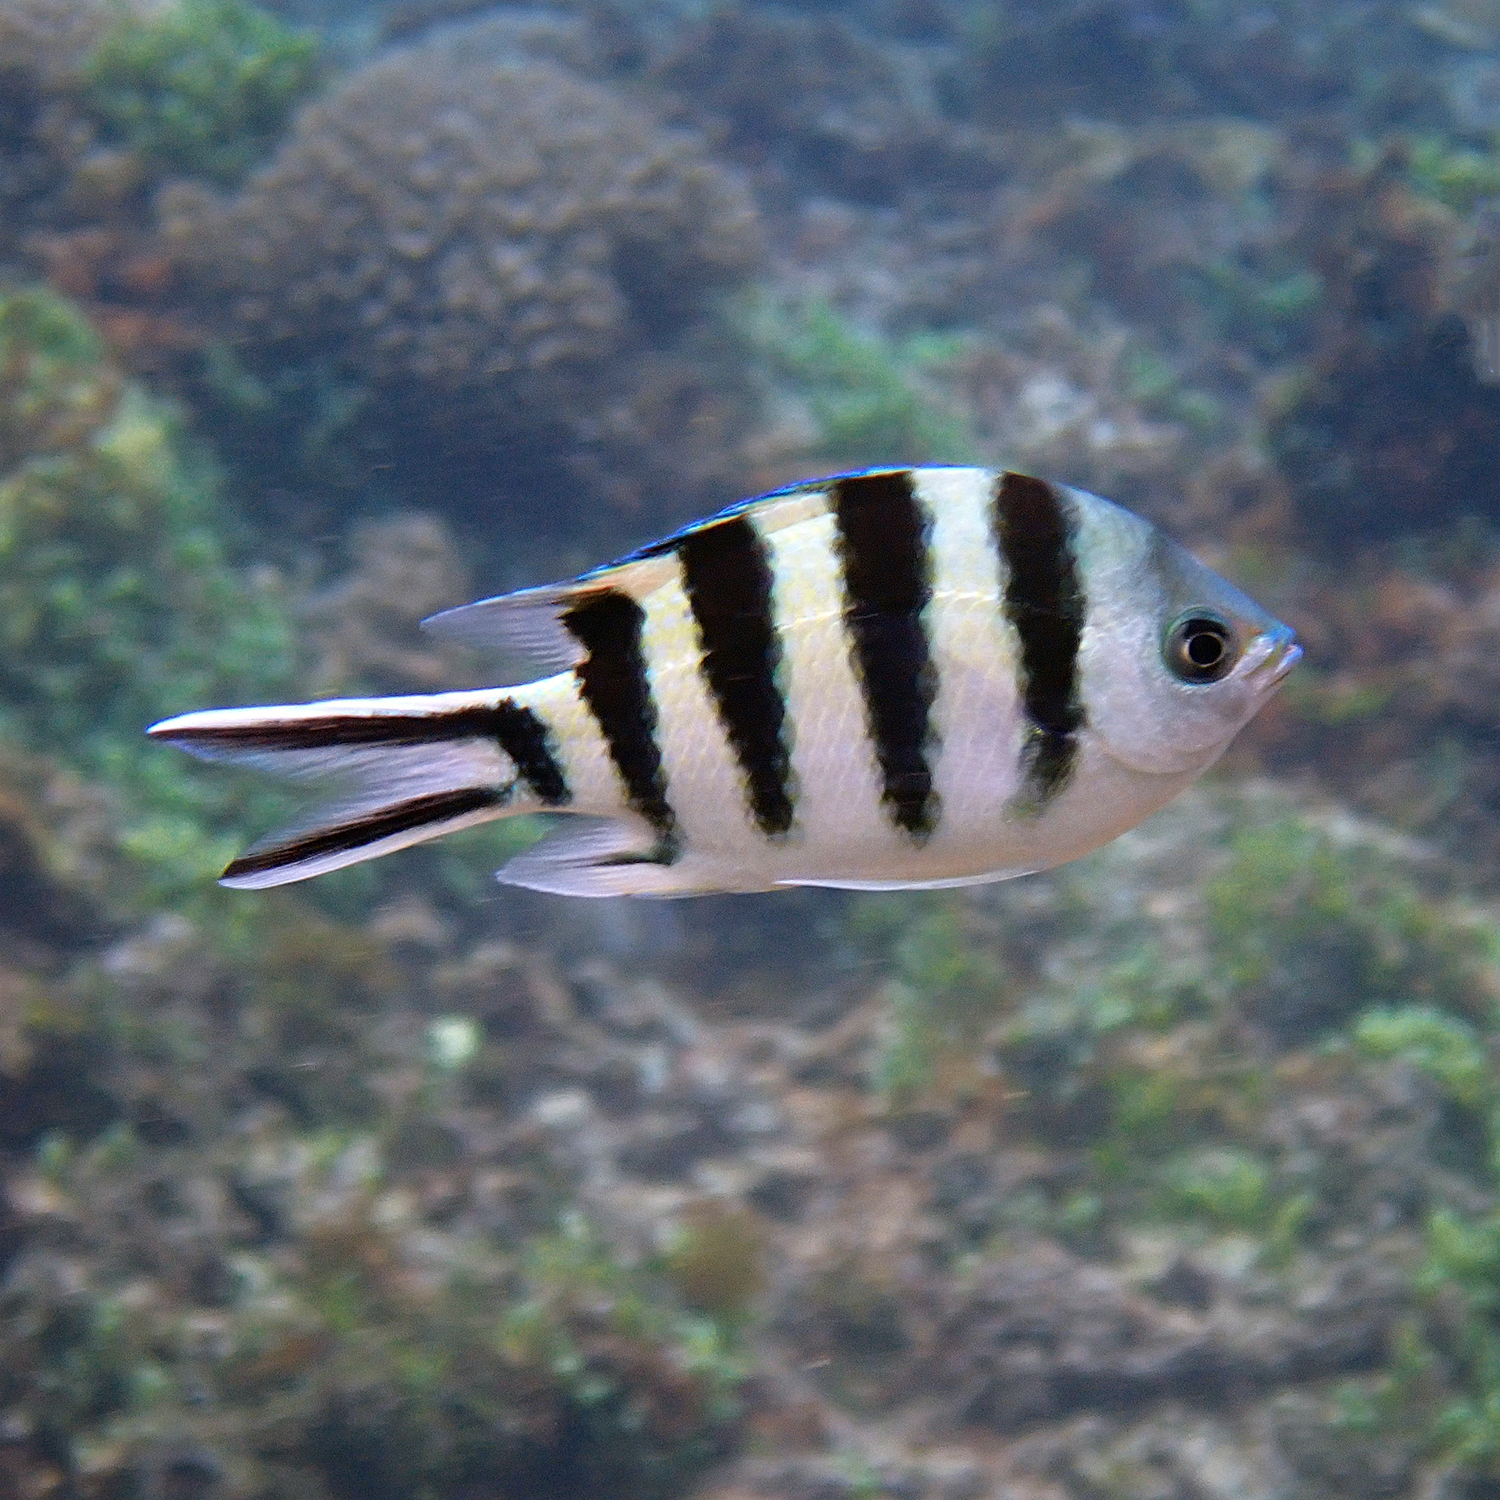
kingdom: Animalia
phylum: Chordata
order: Perciformes
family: Pomacentridae
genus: Abudefduf
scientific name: Abudefduf sexfasciatus
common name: Scissortail sergeant
